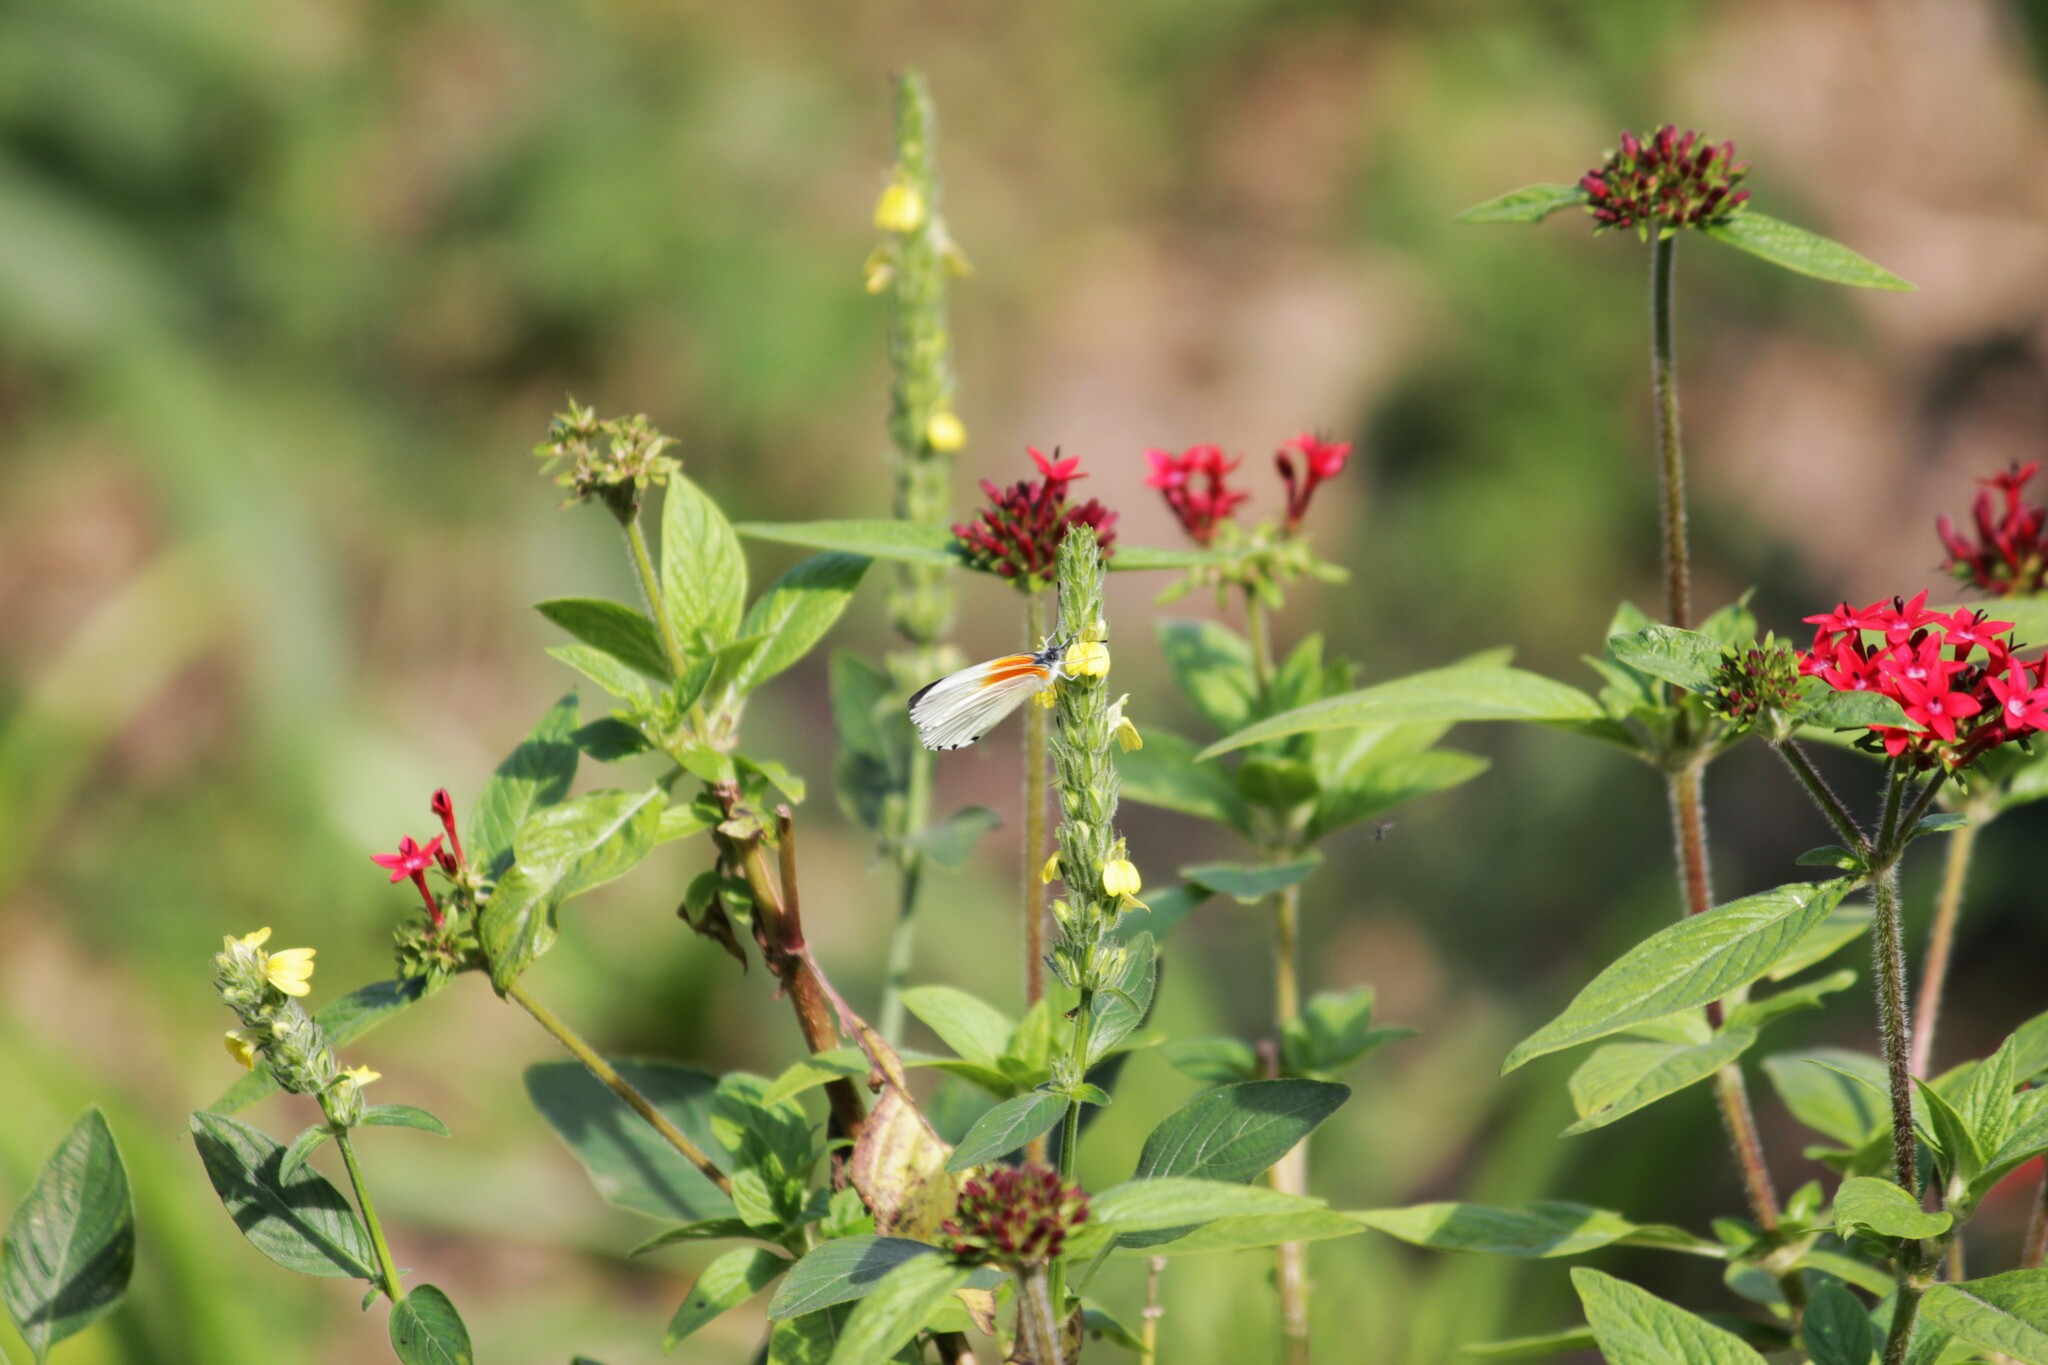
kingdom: Animalia
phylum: Arthropoda
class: Insecta
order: Lepidoptera
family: Pieridae
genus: Mylothris
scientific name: Mylothris rueppellii
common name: Twin dotted border
